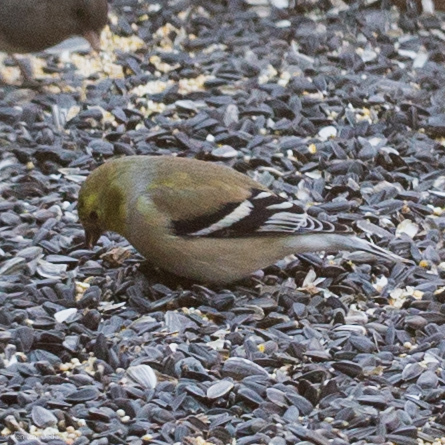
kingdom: Animalia
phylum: Chordata
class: Aves
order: Passeriformes
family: Fringillidae
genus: Spinus
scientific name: Spinus tristis
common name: American goldfinch
